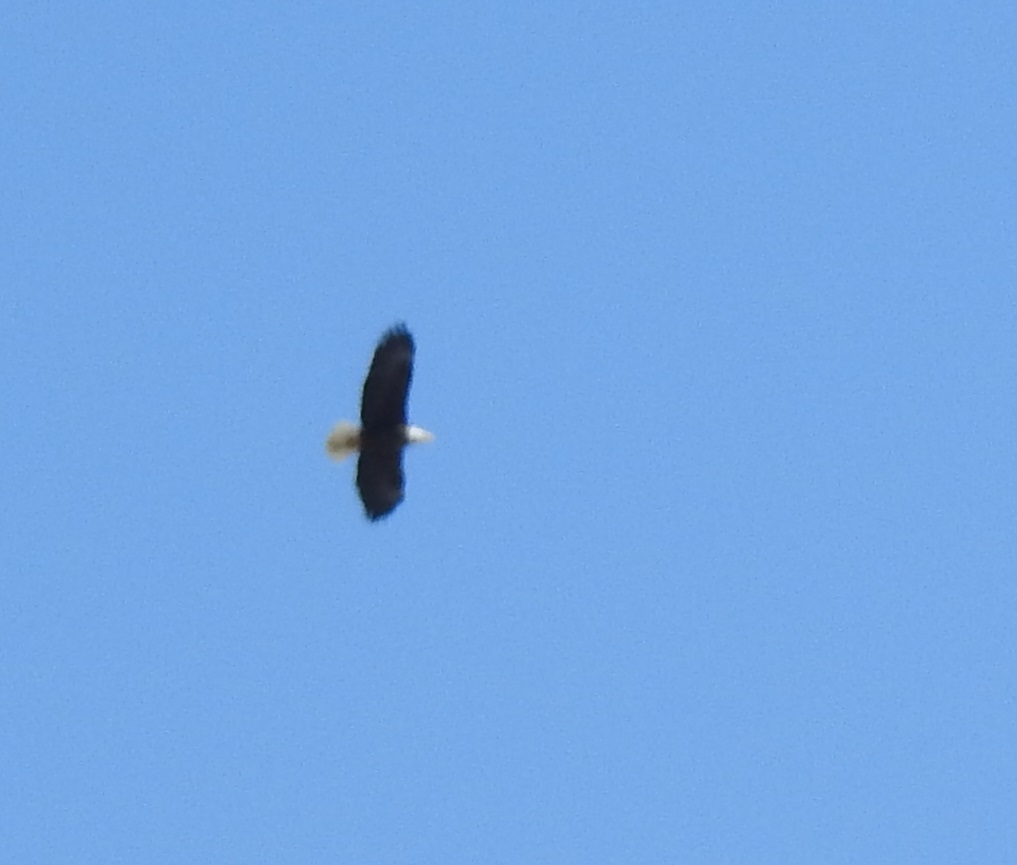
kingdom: Animalia
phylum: Chordata
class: Aves
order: Accipitriformes
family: Accipitridae
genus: Haliaeetus
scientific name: Haliaeetus leucocephalus
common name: Bald eagle
